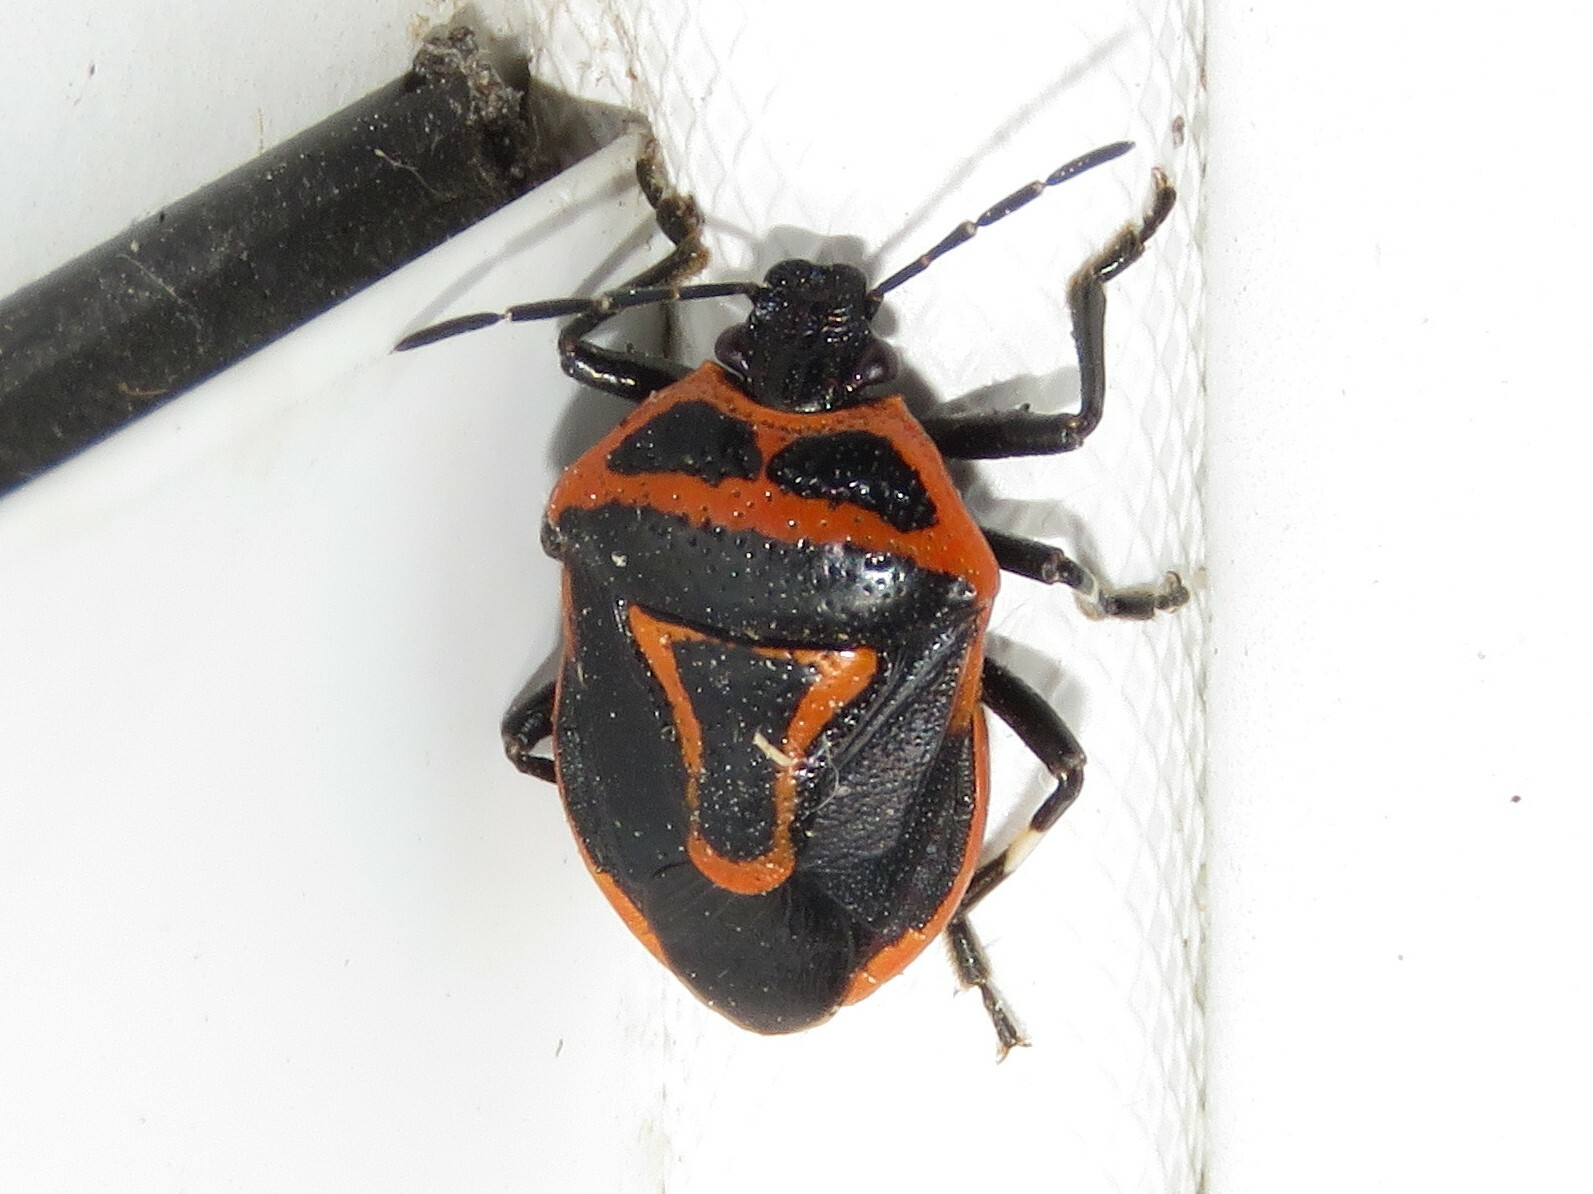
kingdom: Animalia
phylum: Arthropoda
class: Insecta
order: Hemiptera
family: Pentatomidae
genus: Perillus
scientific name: Perillus bioculatus
